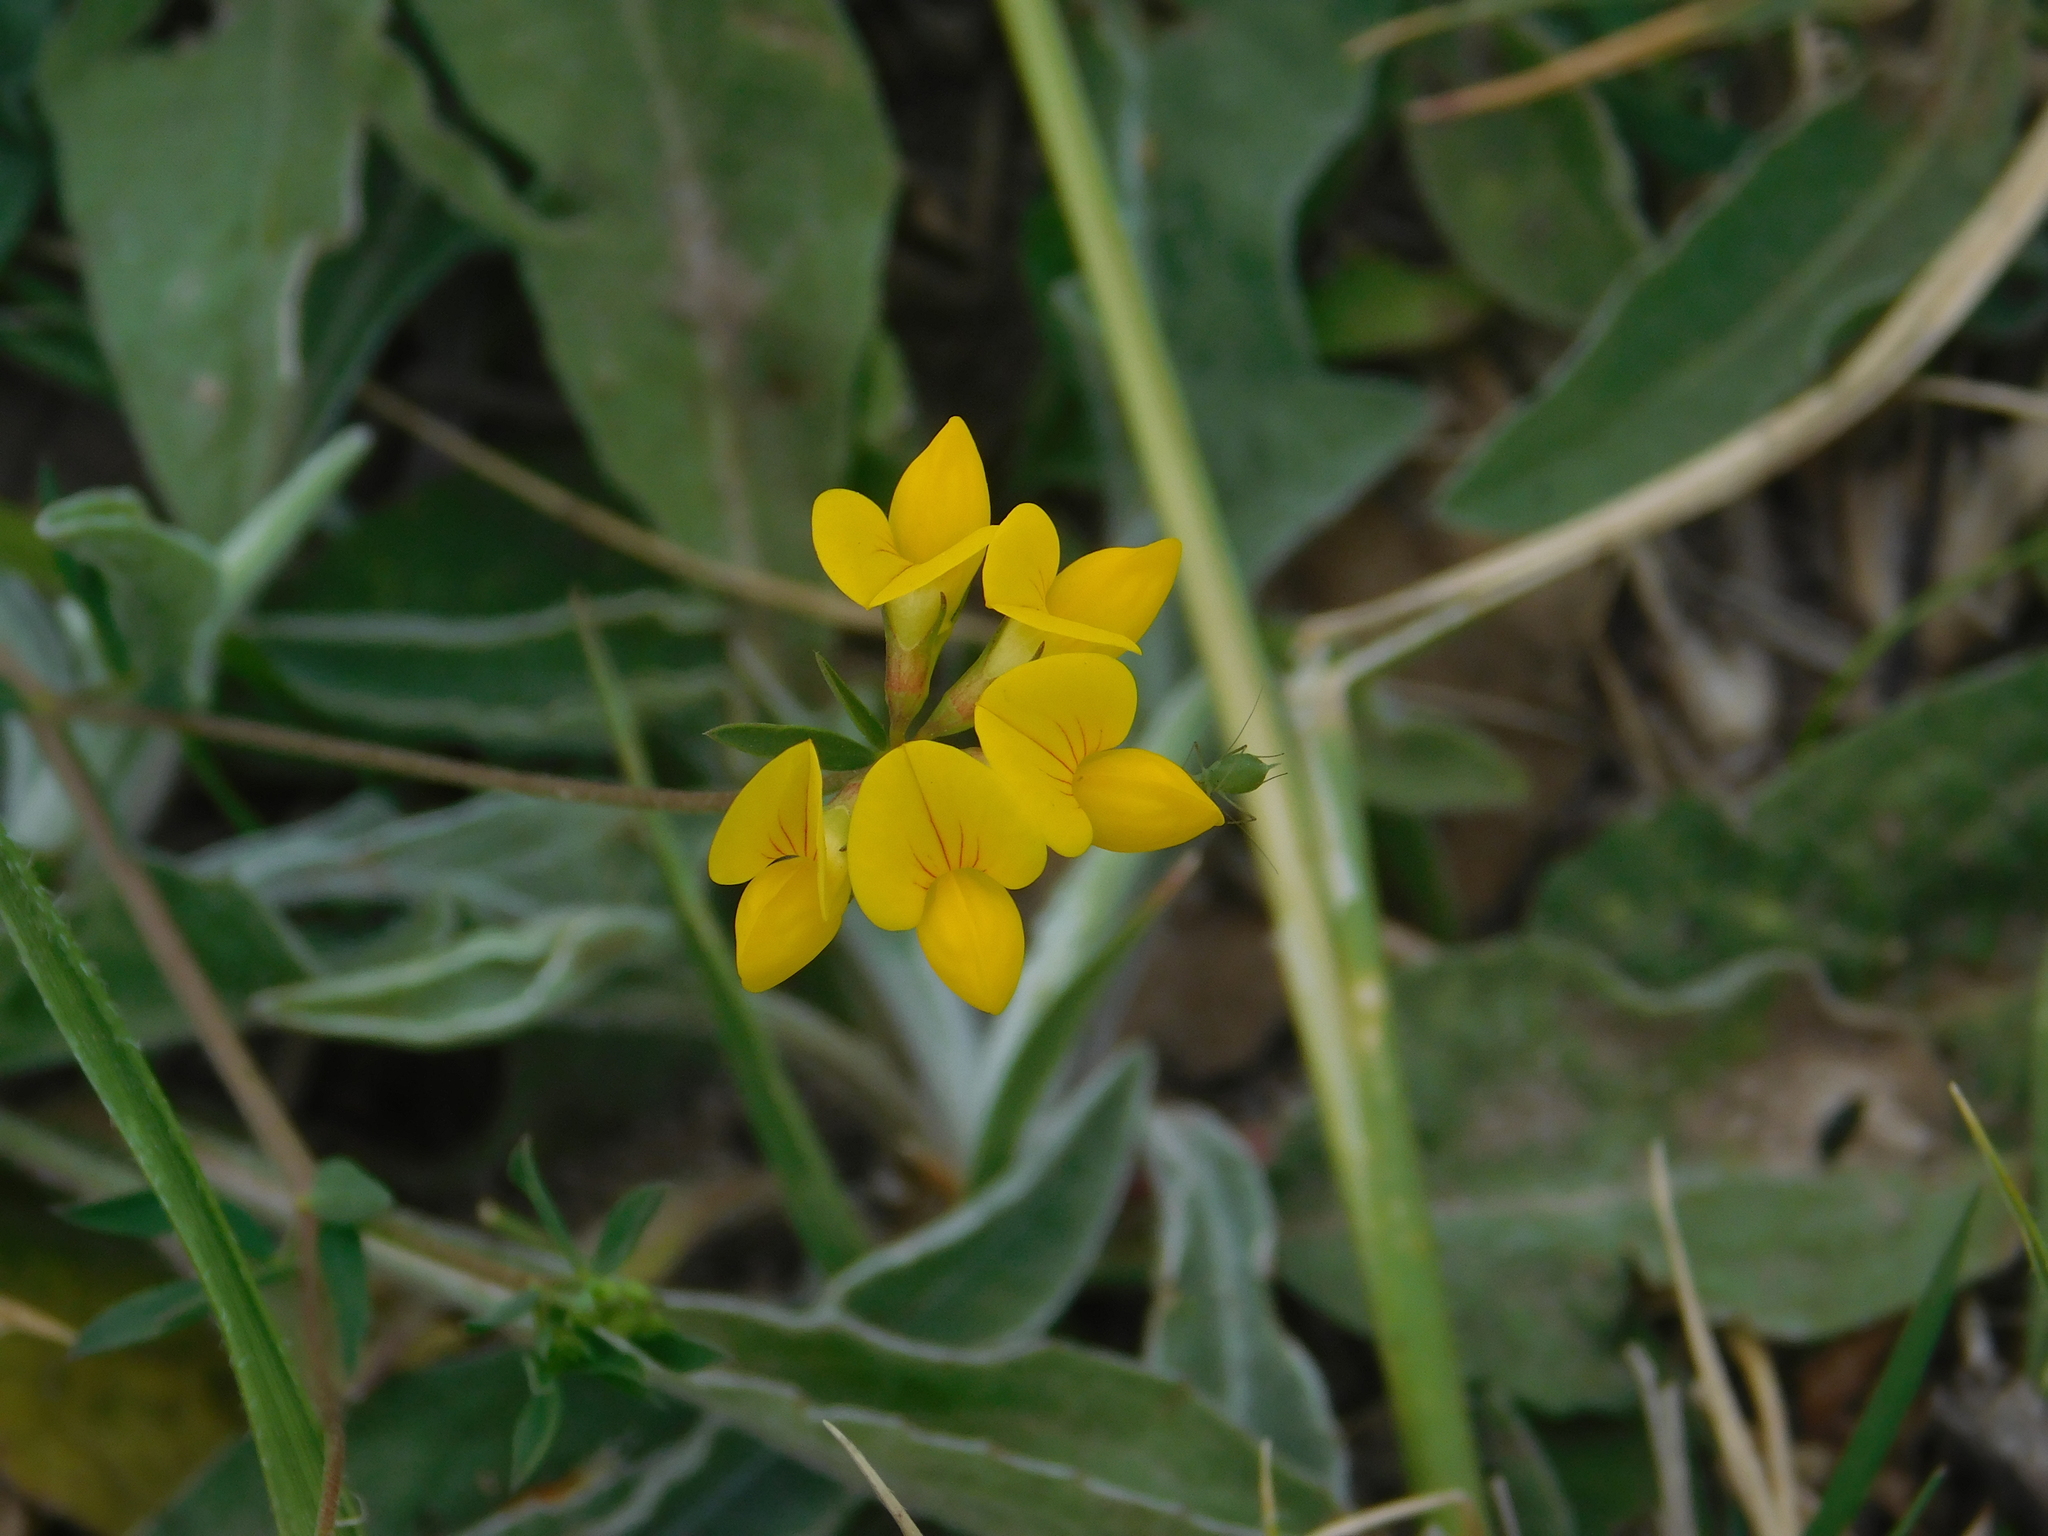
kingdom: Plantae
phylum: Tracheophyta
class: Magnoliopsida
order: Fabales
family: Fabaceae
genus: Lotus
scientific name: Lotus corniculatus
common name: Common bird's-foot-trefoil
